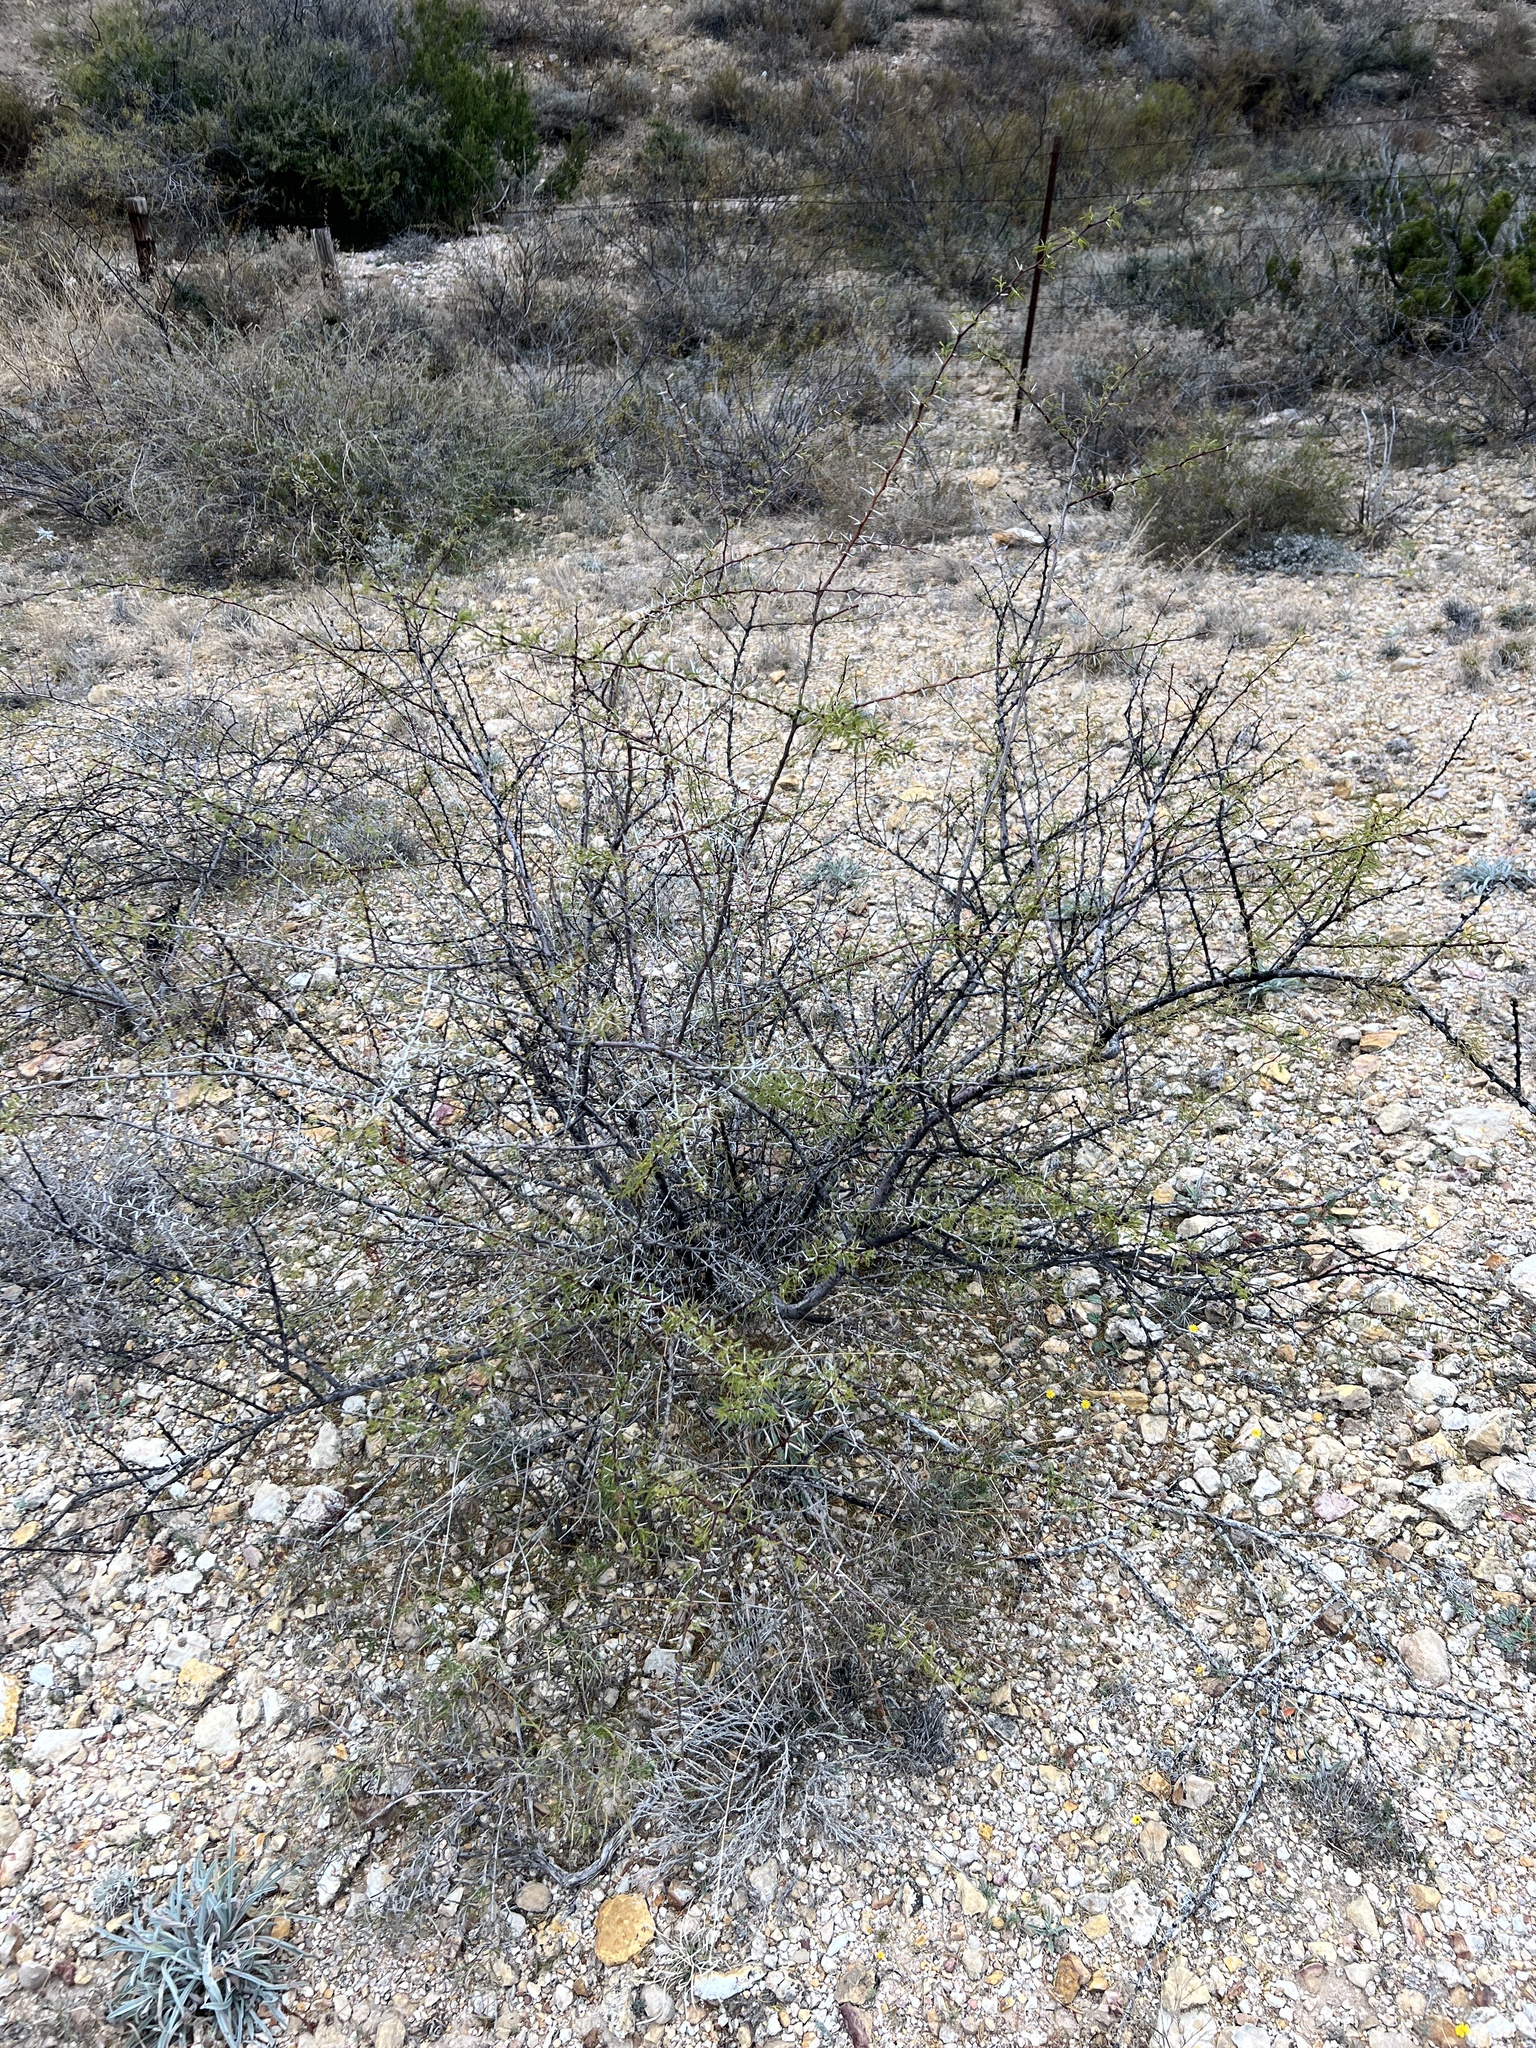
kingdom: Plantae
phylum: Tracheophyta
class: Magnoliopsida
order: Fabales
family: Fabaceae
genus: Vachellia
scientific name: Vachellia vernicosa
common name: Viscid acacia
